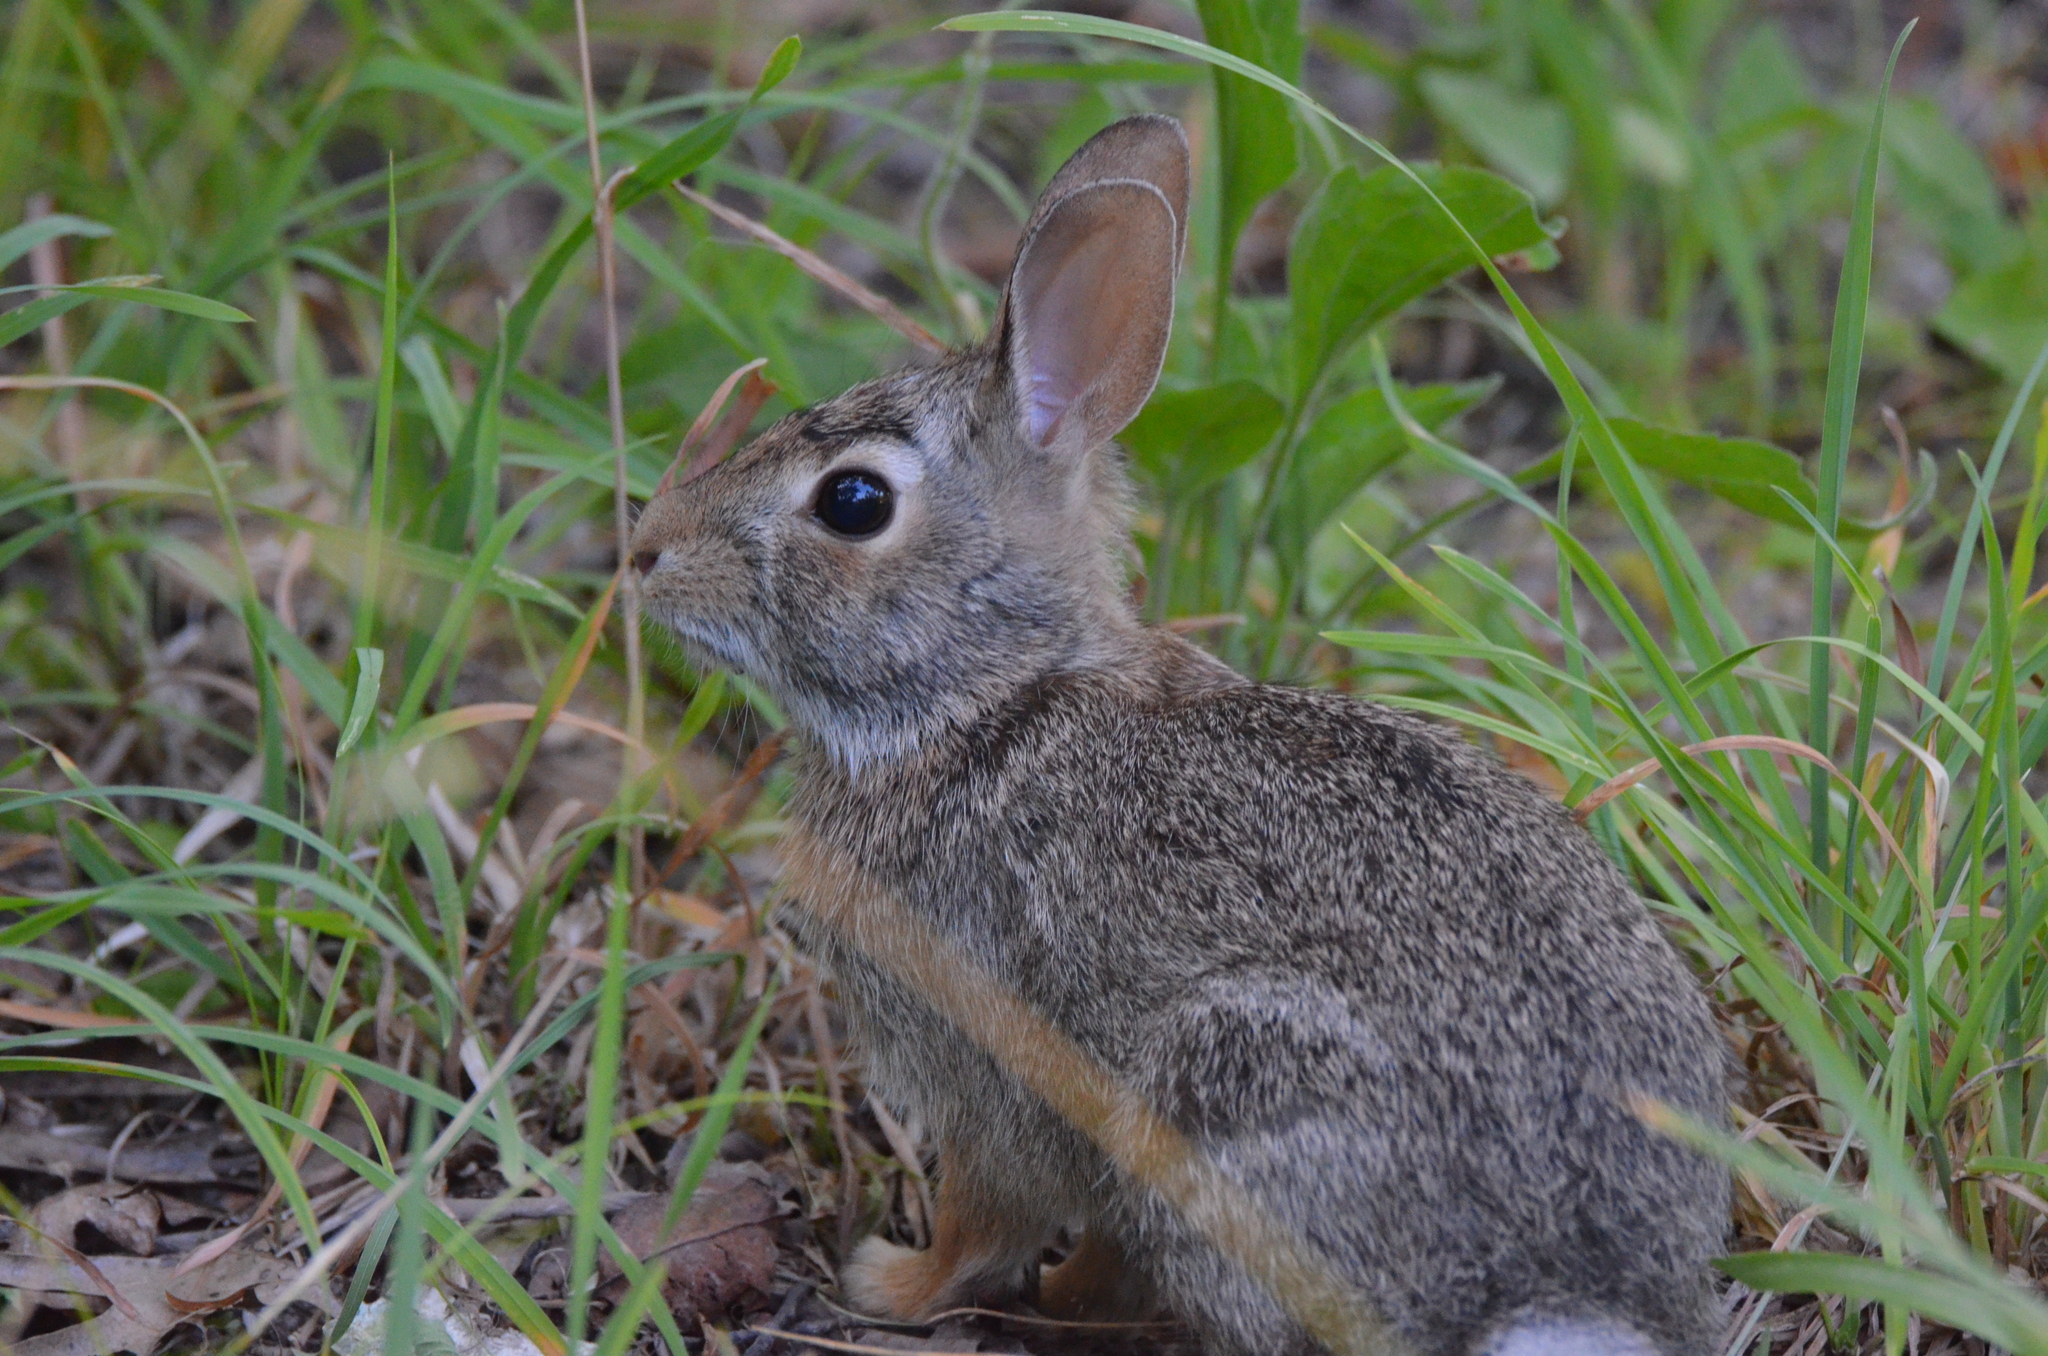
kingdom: Animalia
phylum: Chordata
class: Mammalia
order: Lagomorpha
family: Leporidae
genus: Sylvilagus
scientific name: Sylvilagus floridanus
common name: Eastern cottontail
